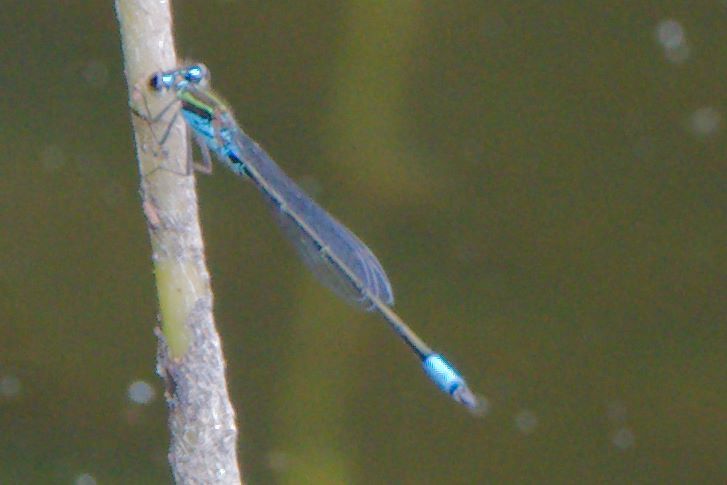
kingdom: Animalia
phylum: Arthropoda
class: Insecta
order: Odonata
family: Coenagrionidae
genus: Neoerythromma
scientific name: Neoerythromma cultellatum
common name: Caribbean yellowface
